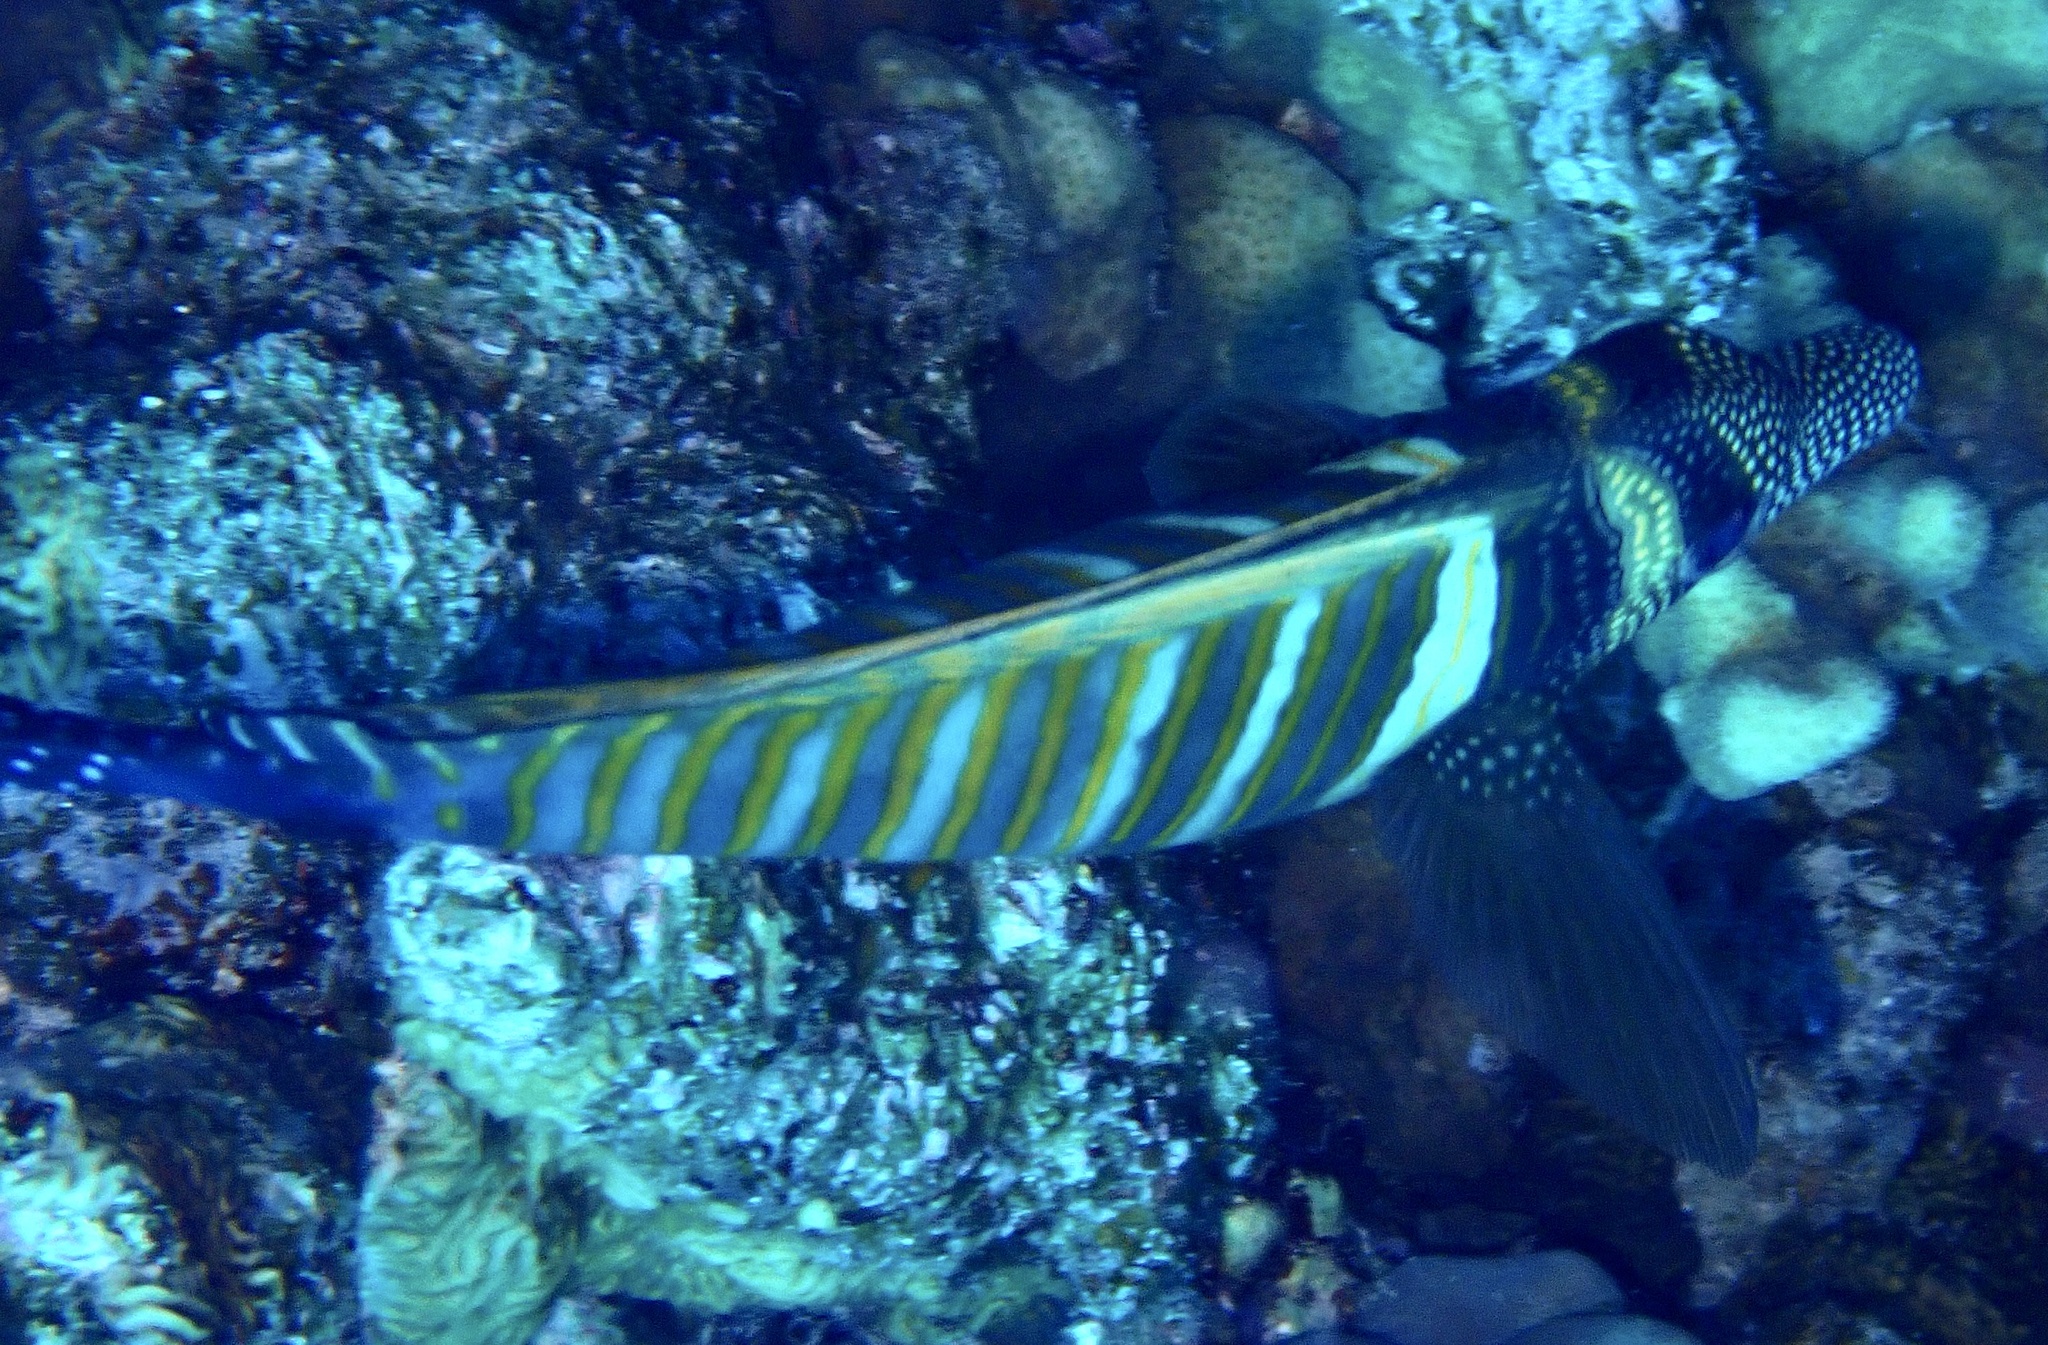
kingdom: Animalia
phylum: Chordata
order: Perciformes
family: Acanthuridae
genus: Zebrasoma
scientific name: Zebrasoma desjardinii
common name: Desjardin's sailfin tang
